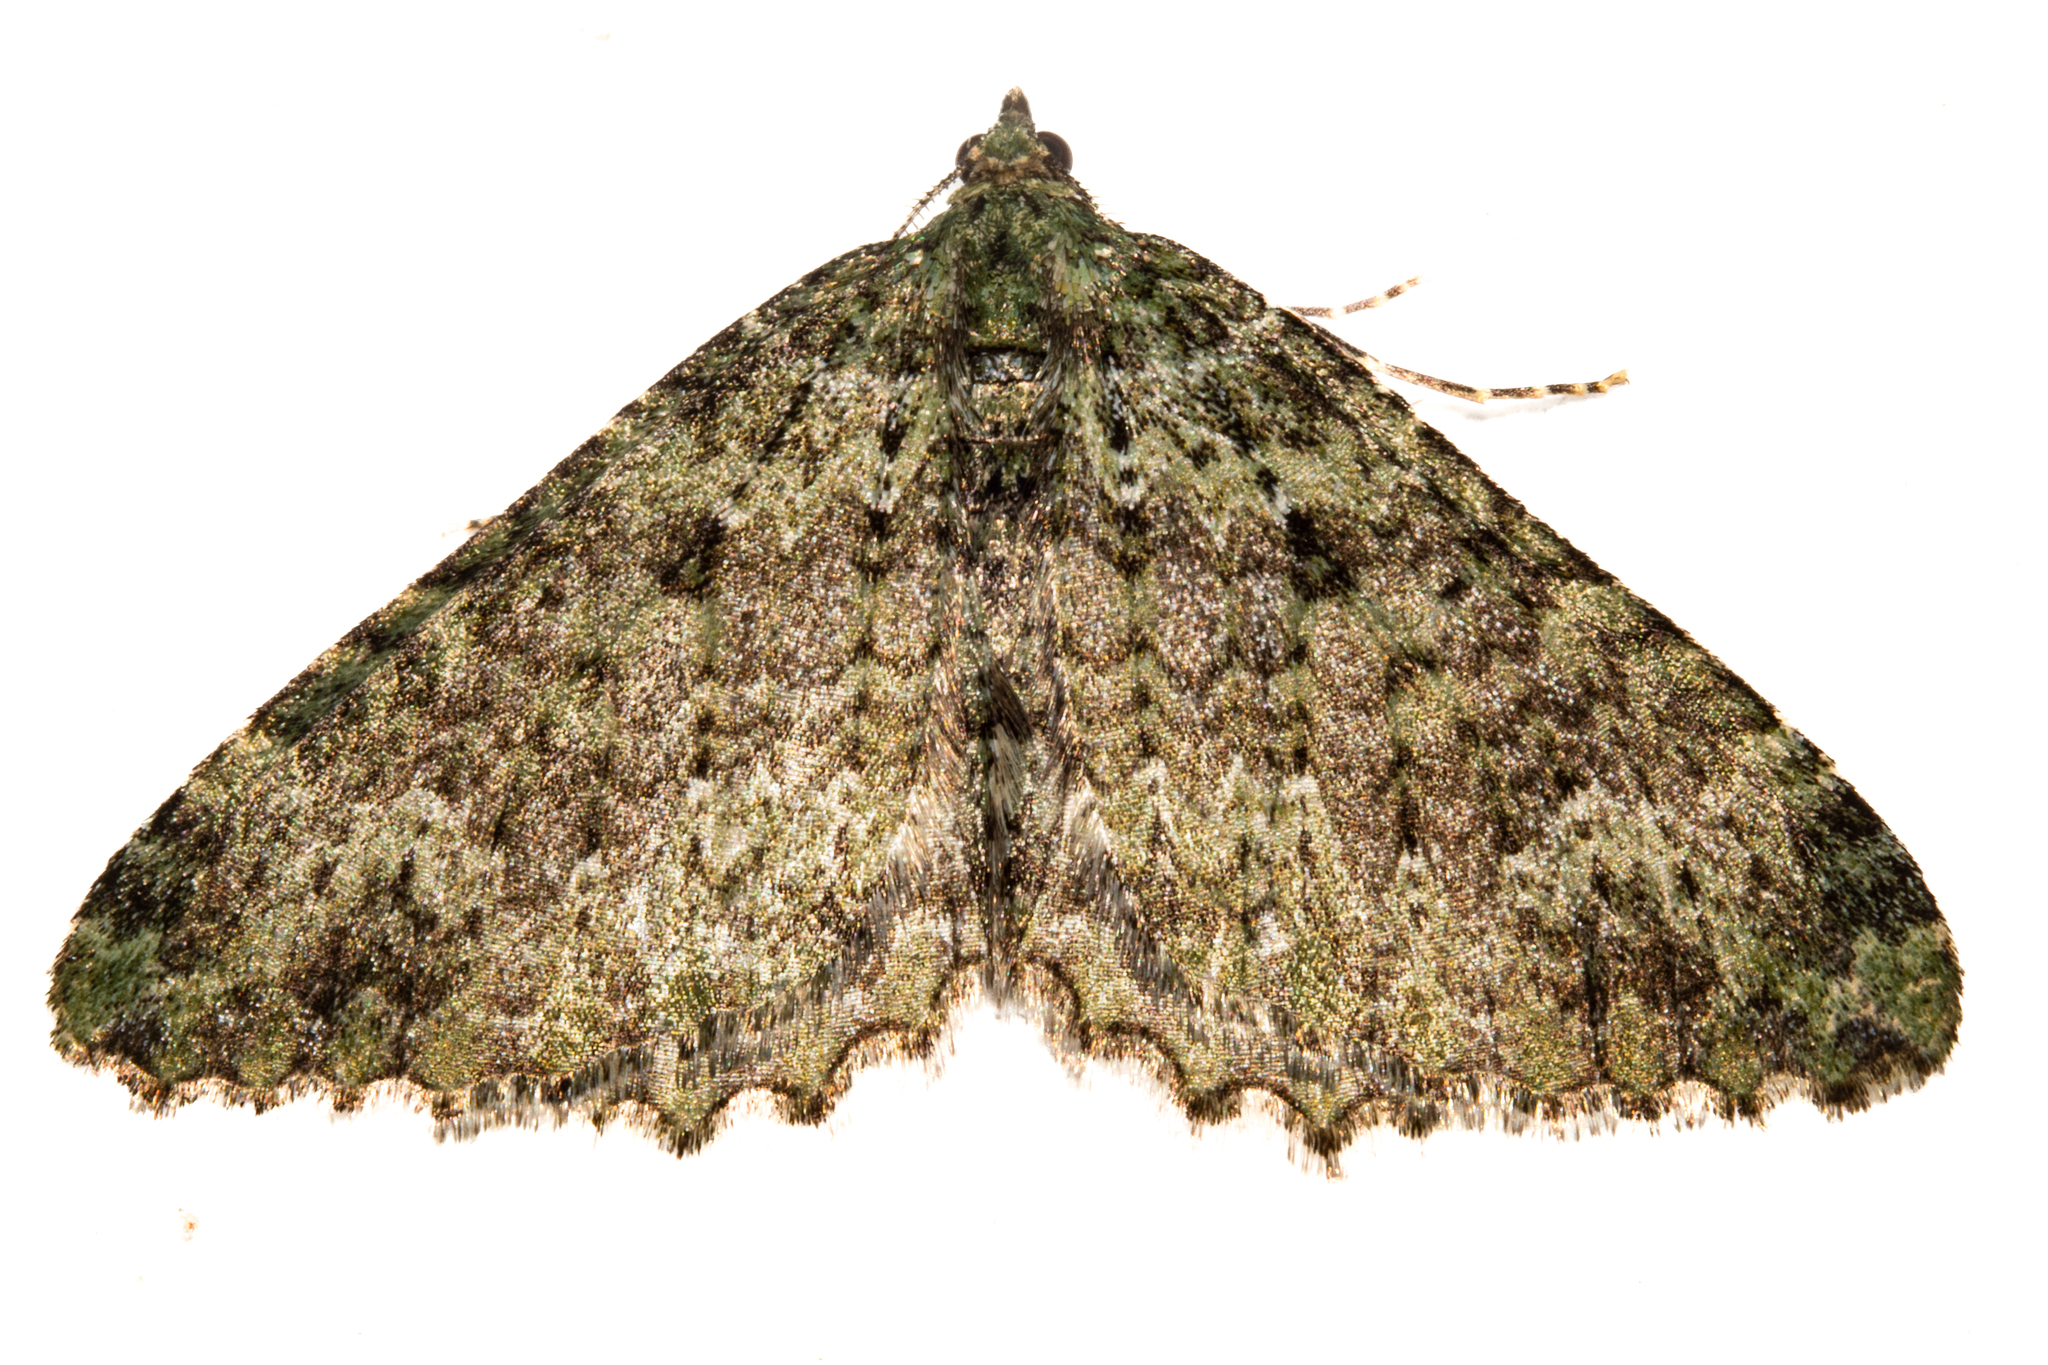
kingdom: Animalia
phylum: Arthropoda
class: Insecta
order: Lepidoptera
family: Geometridae
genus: Austrocidaria
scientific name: Austrocidaria umbrosa
